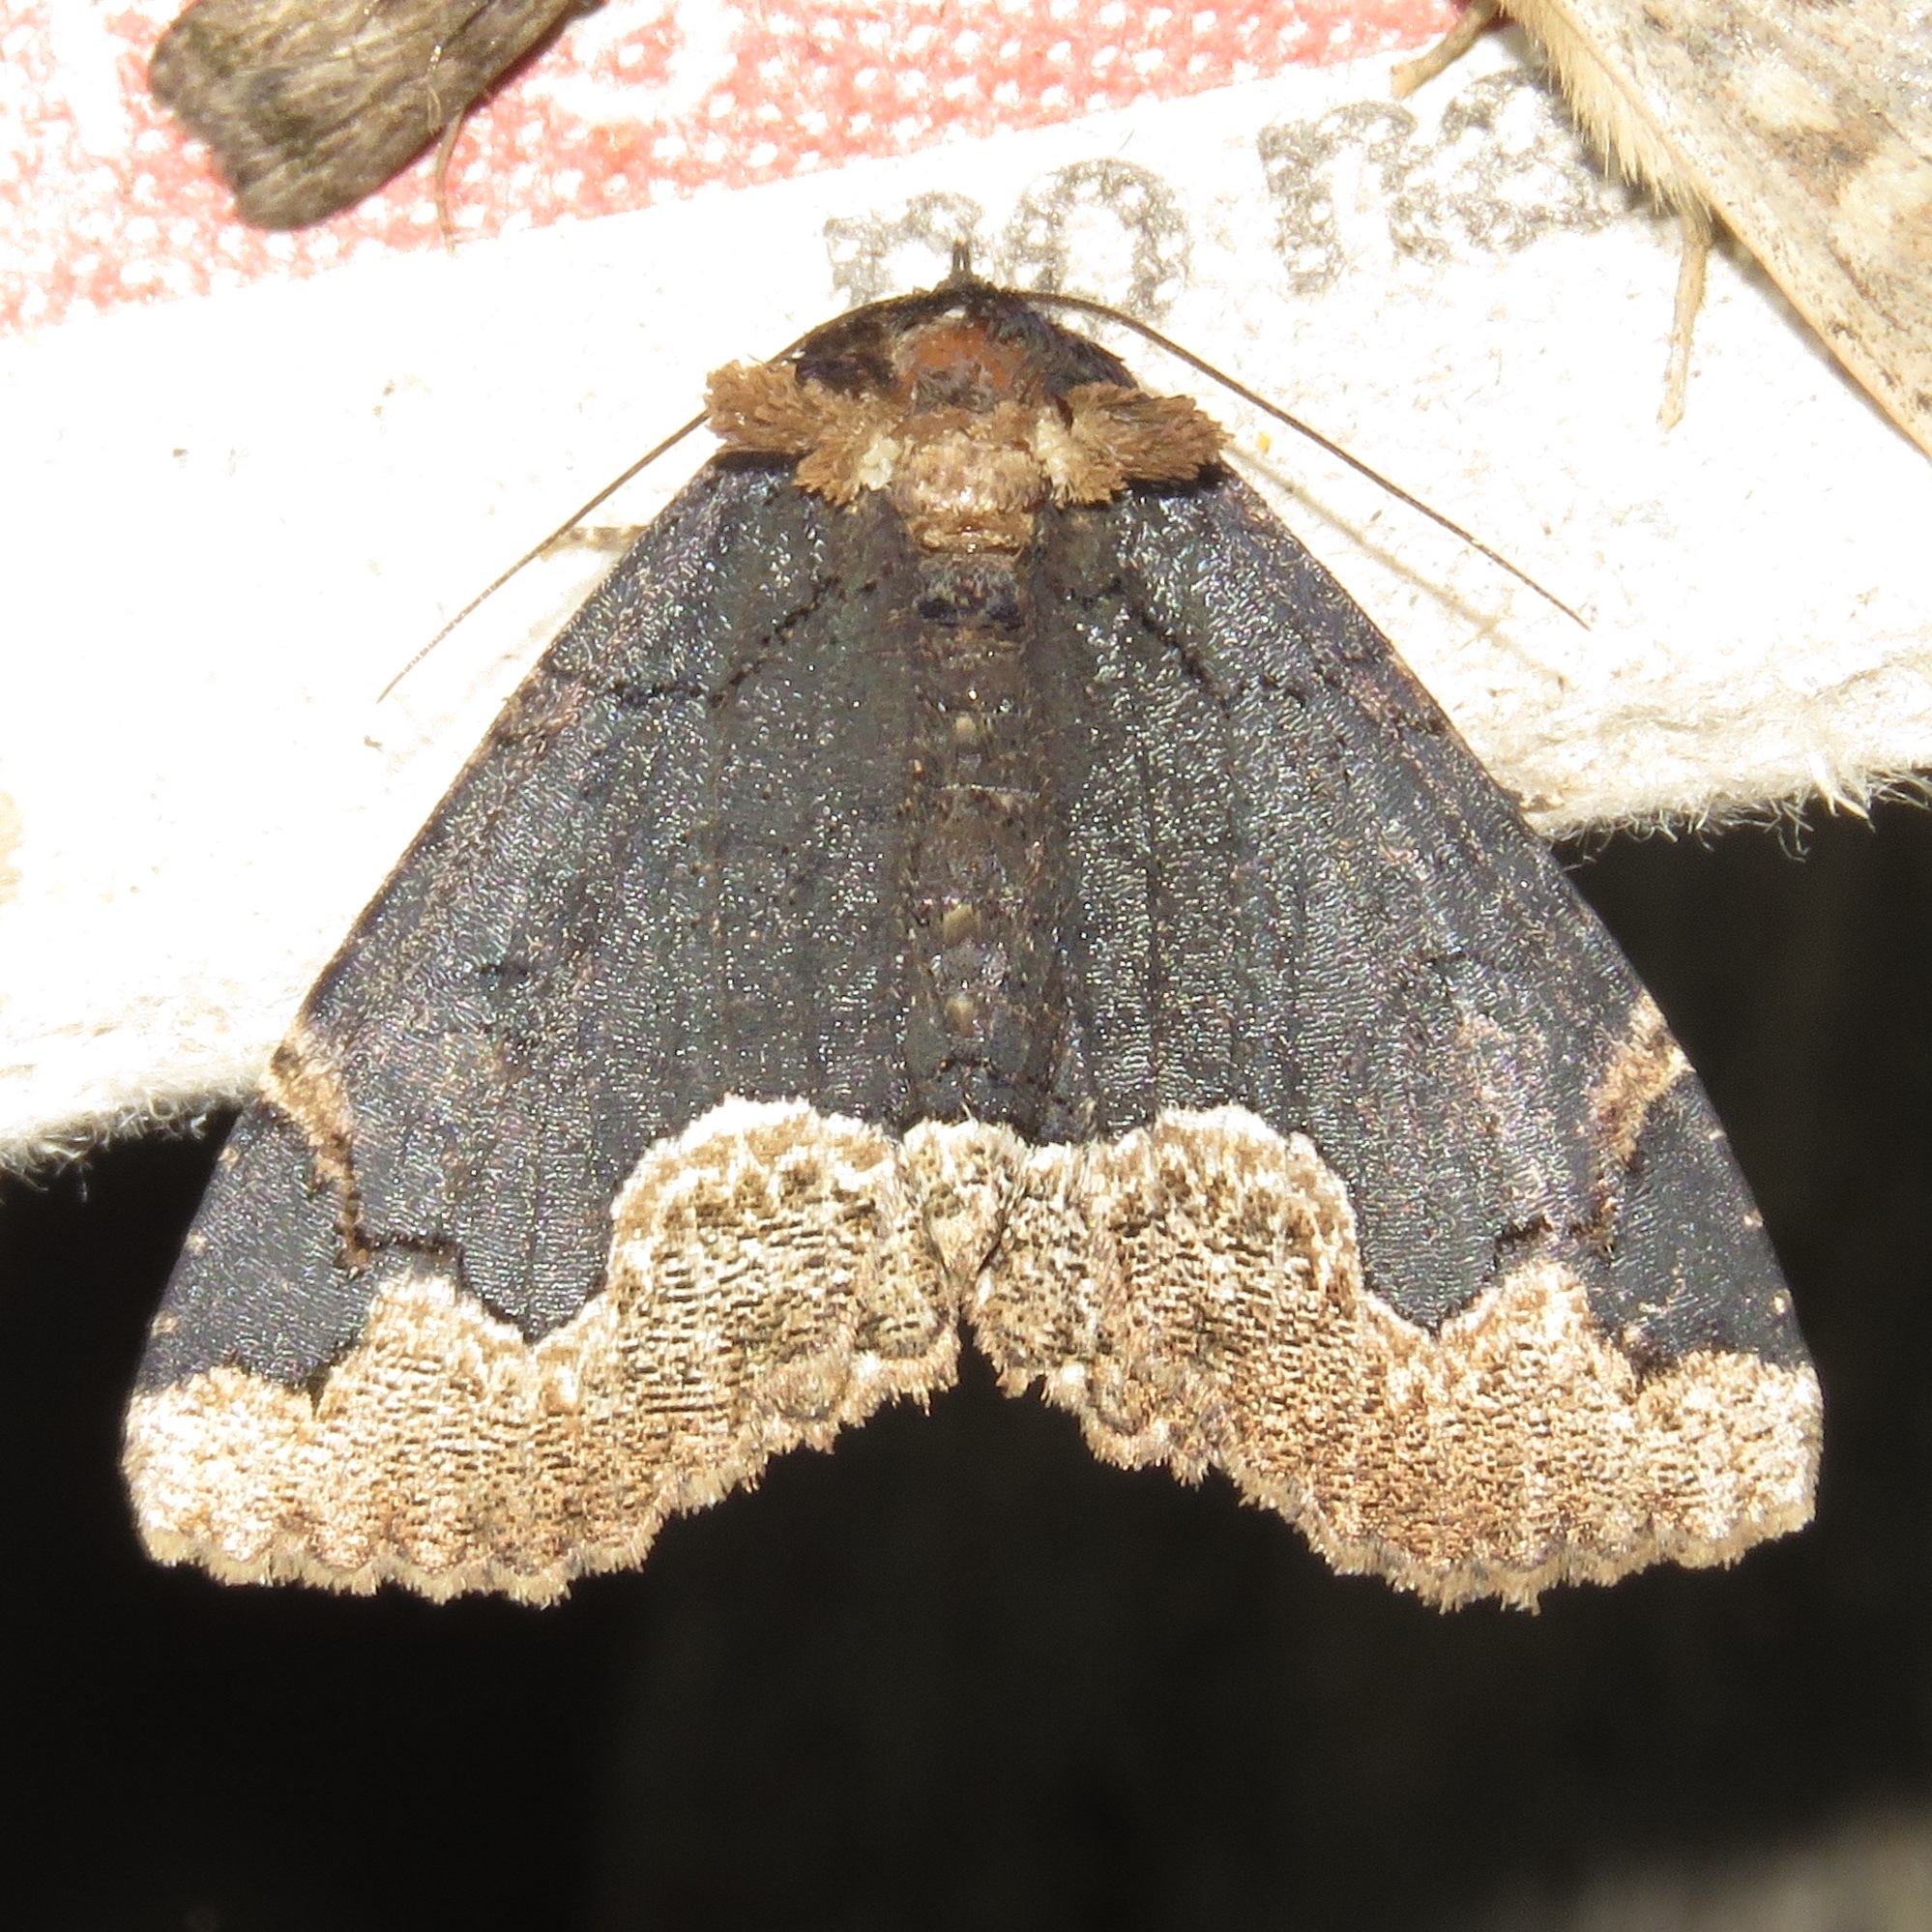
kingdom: Animalia
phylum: Arthropoda
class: Insecta
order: Lepidoptera
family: Erebidae
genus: Zale
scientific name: Zale horrida
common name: Horrid zale moth
